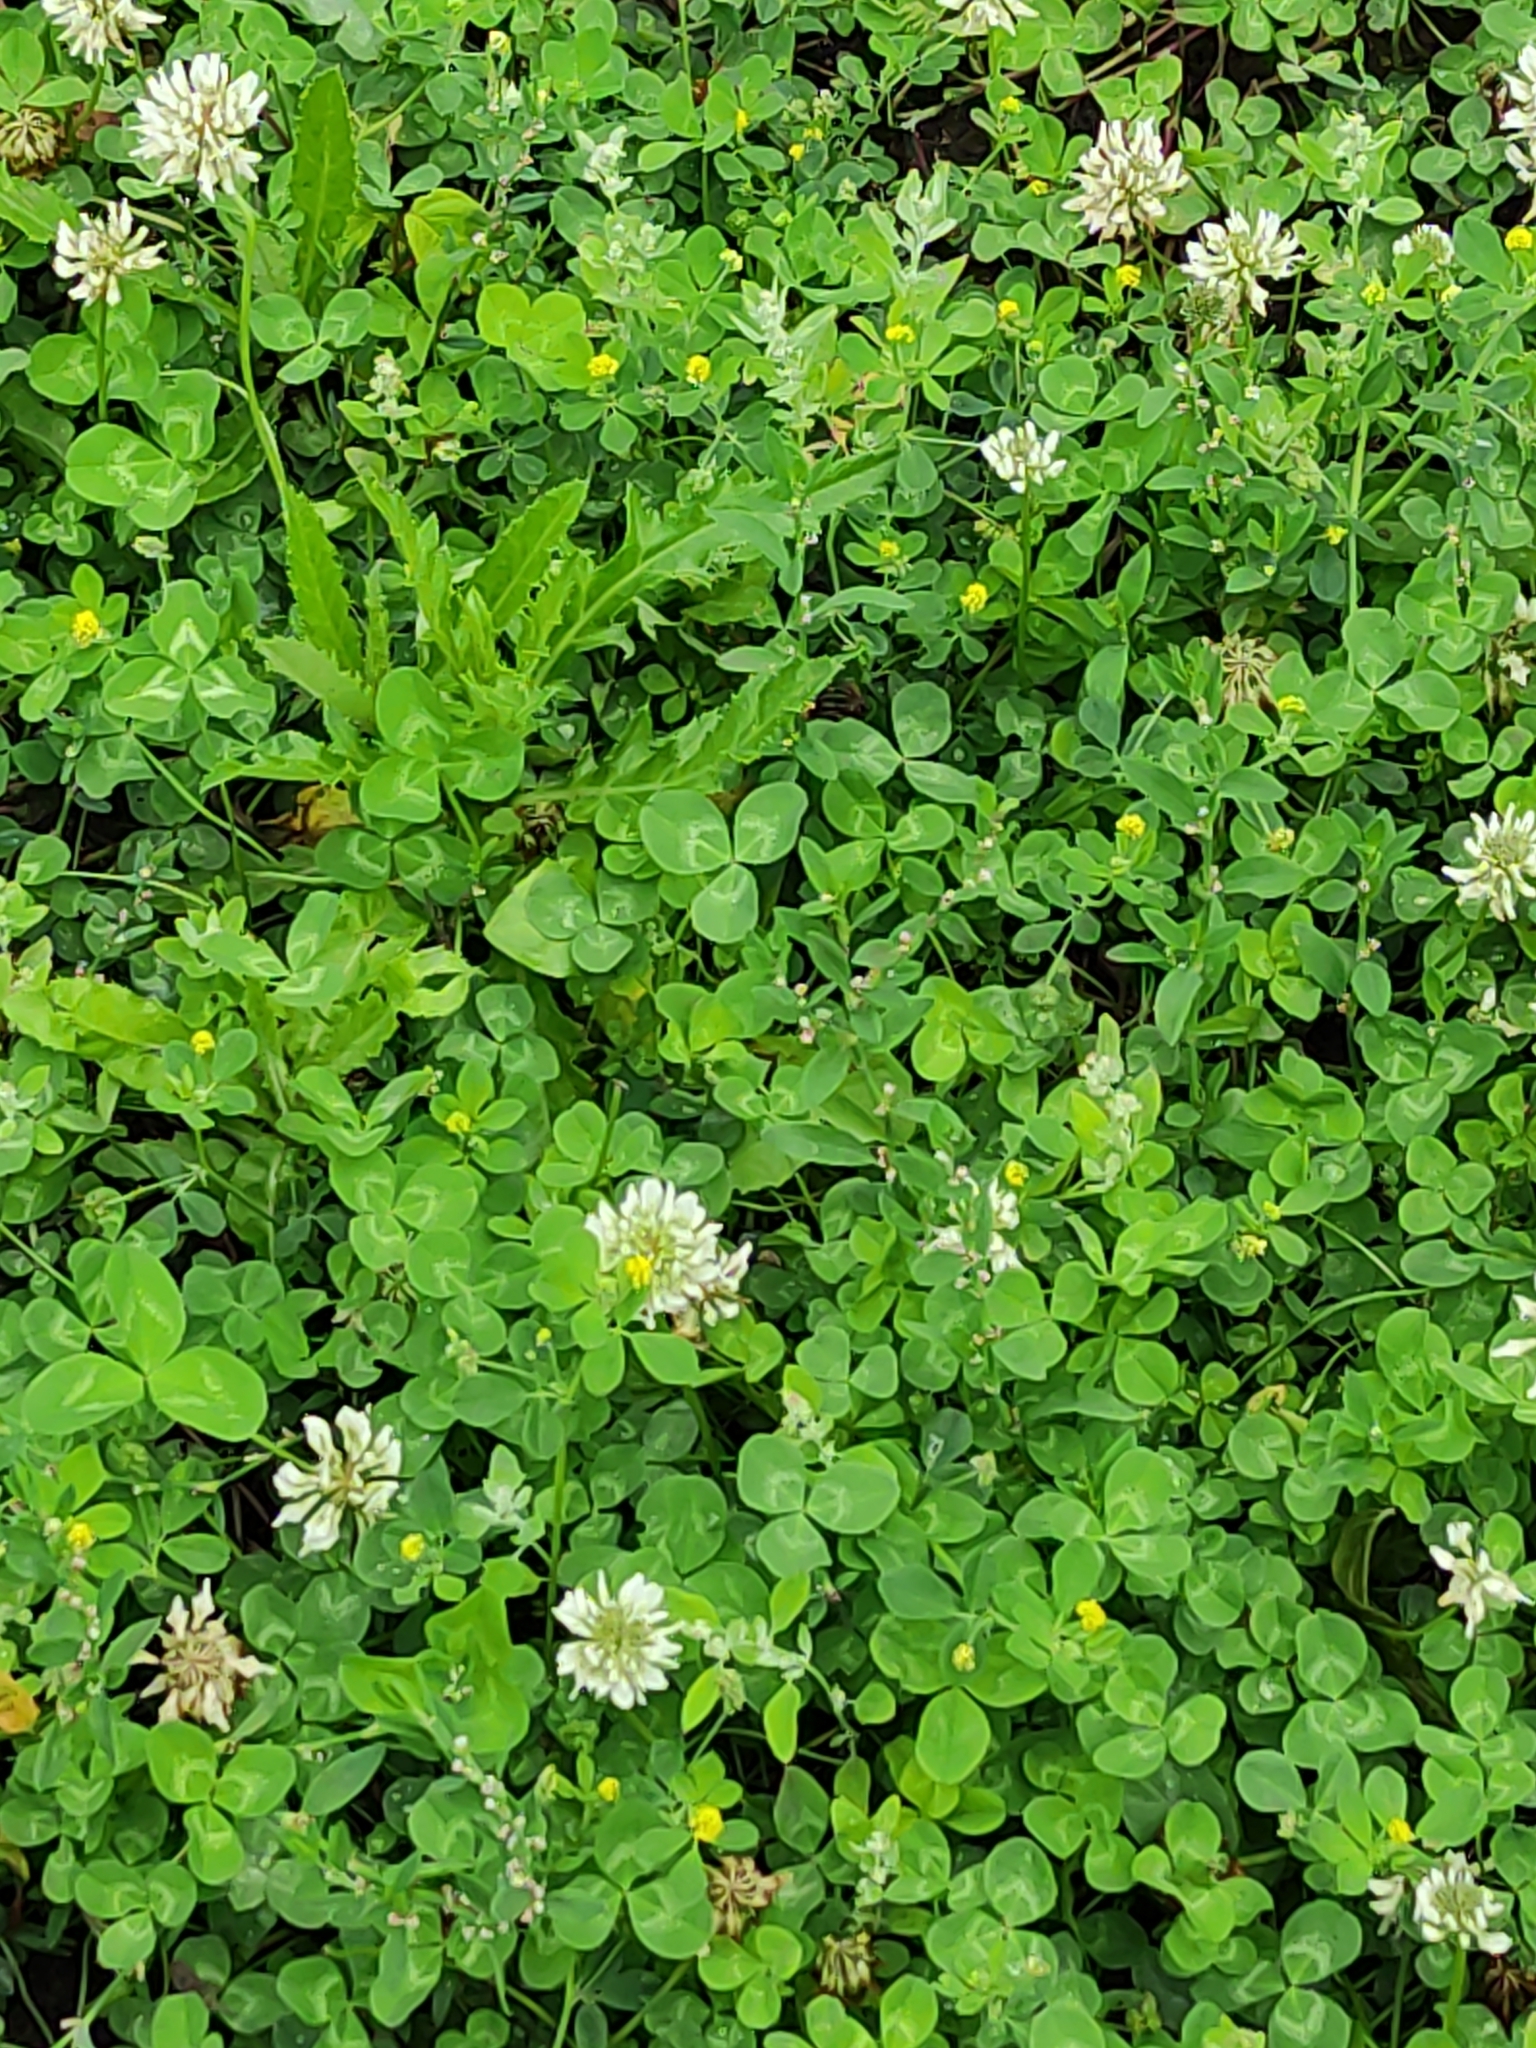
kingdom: Plantae
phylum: Tracheophyta
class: Magnoliopsida
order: Fabales
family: Fabaceae
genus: Trifolium
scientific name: Trifolium repens
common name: White clover
